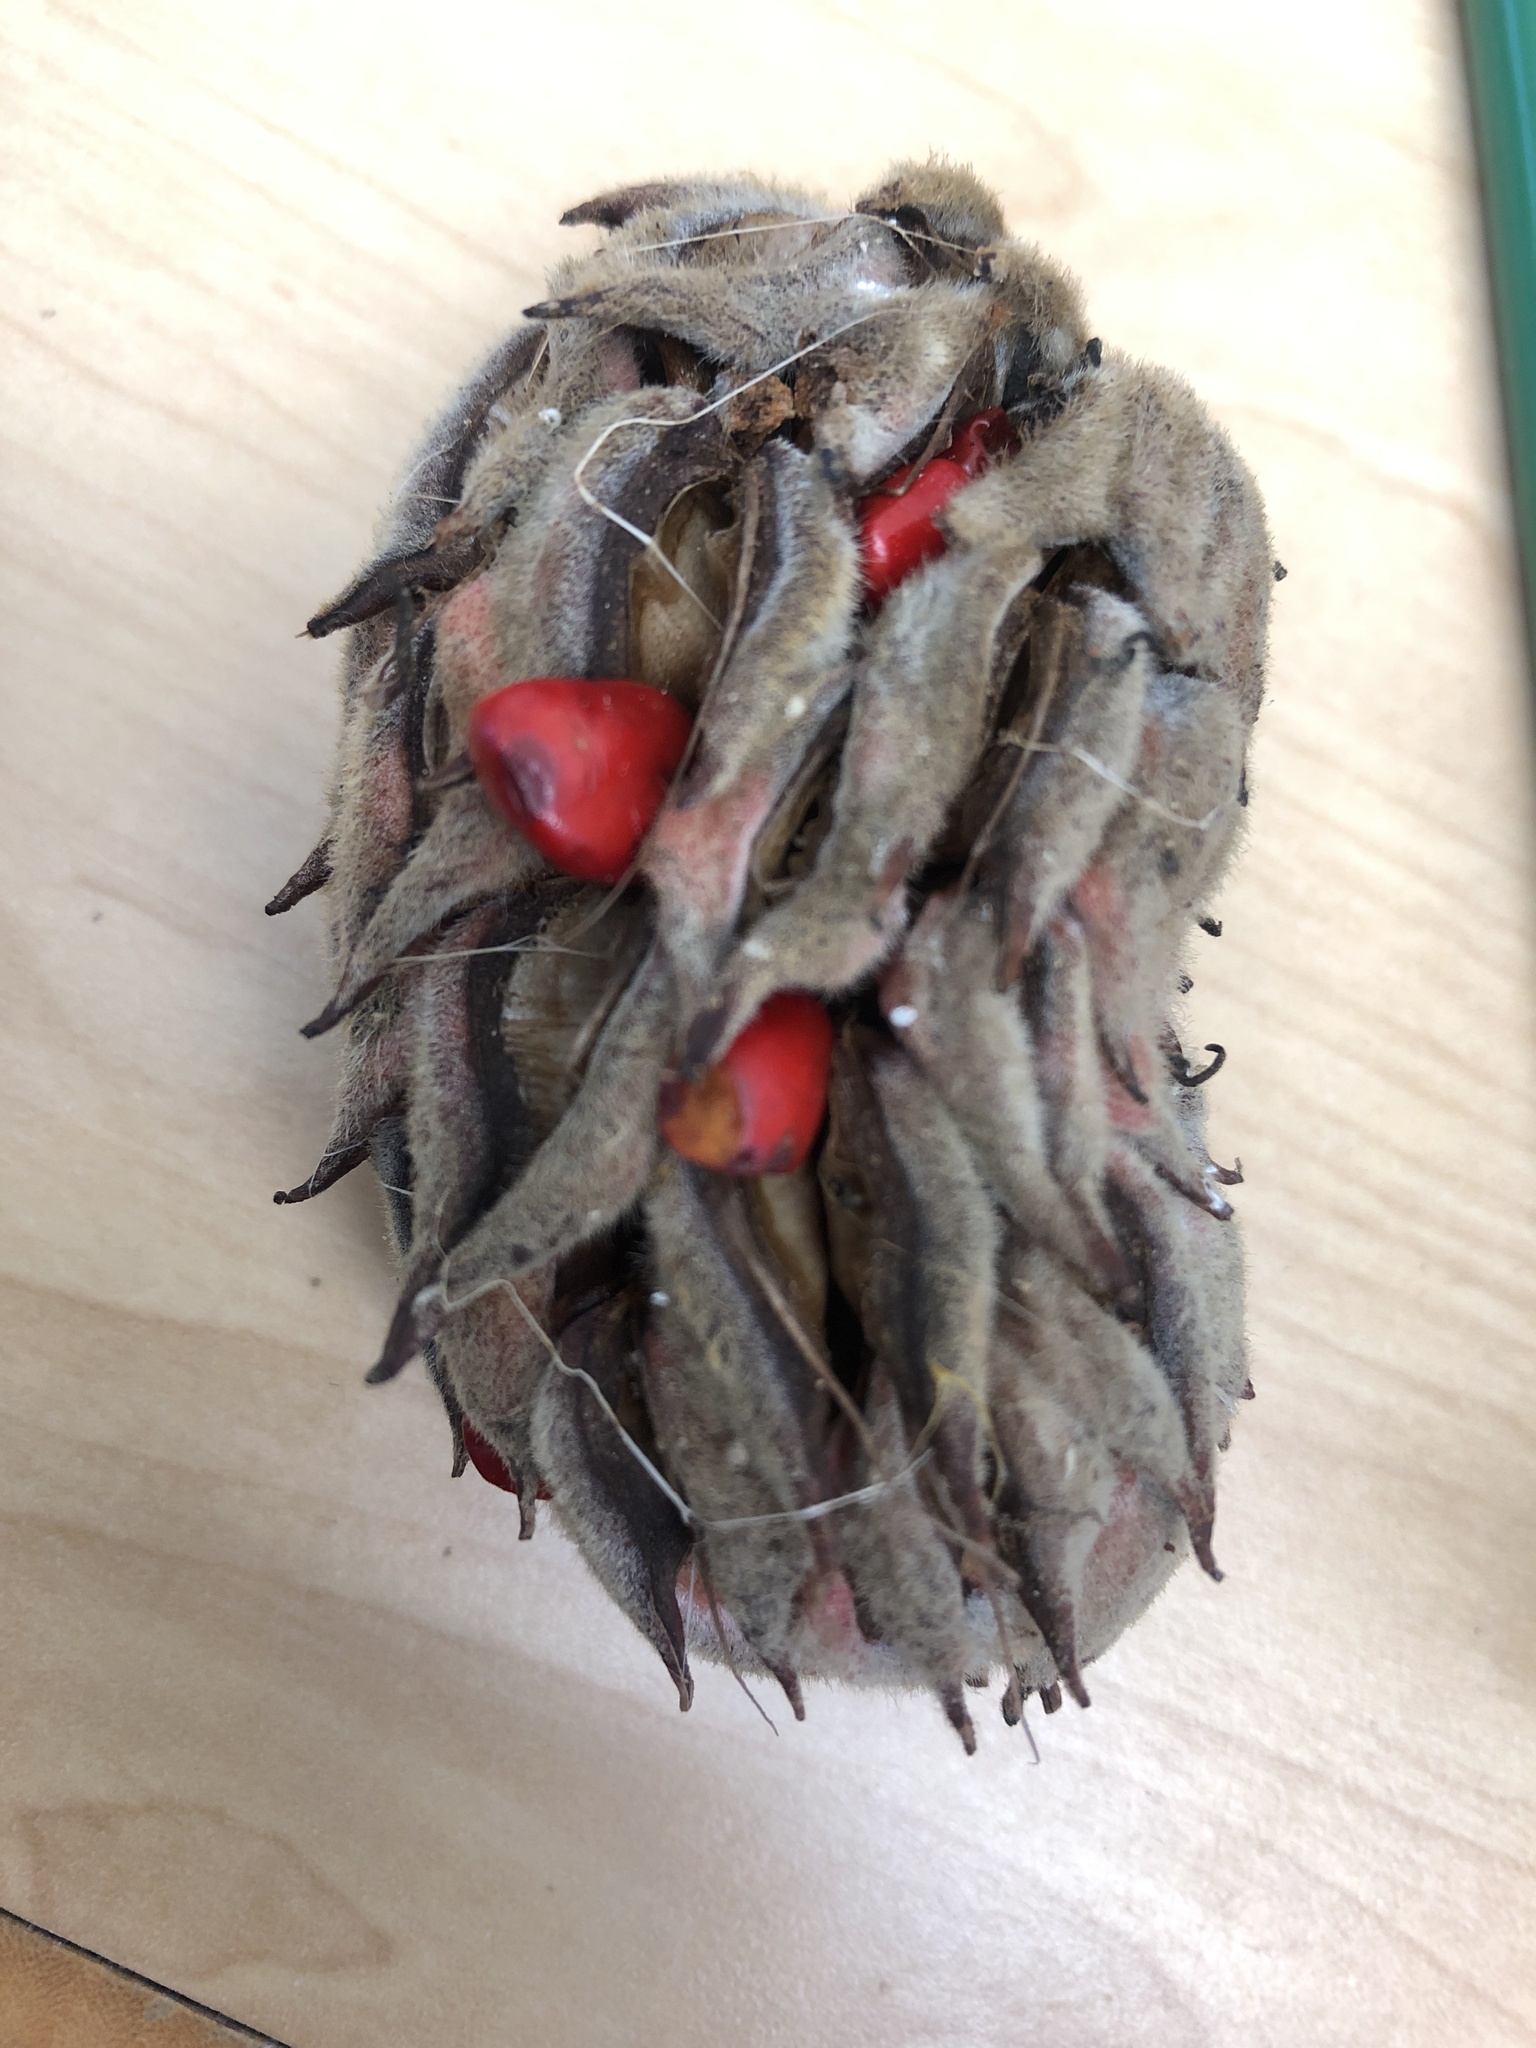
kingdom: Plantae
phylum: Tracheophyta
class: Magnoliopsida
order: Magnoliales
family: Magnoliaceae
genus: Magnolia
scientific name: Magnolia grandiflora
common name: Southern magnolia
